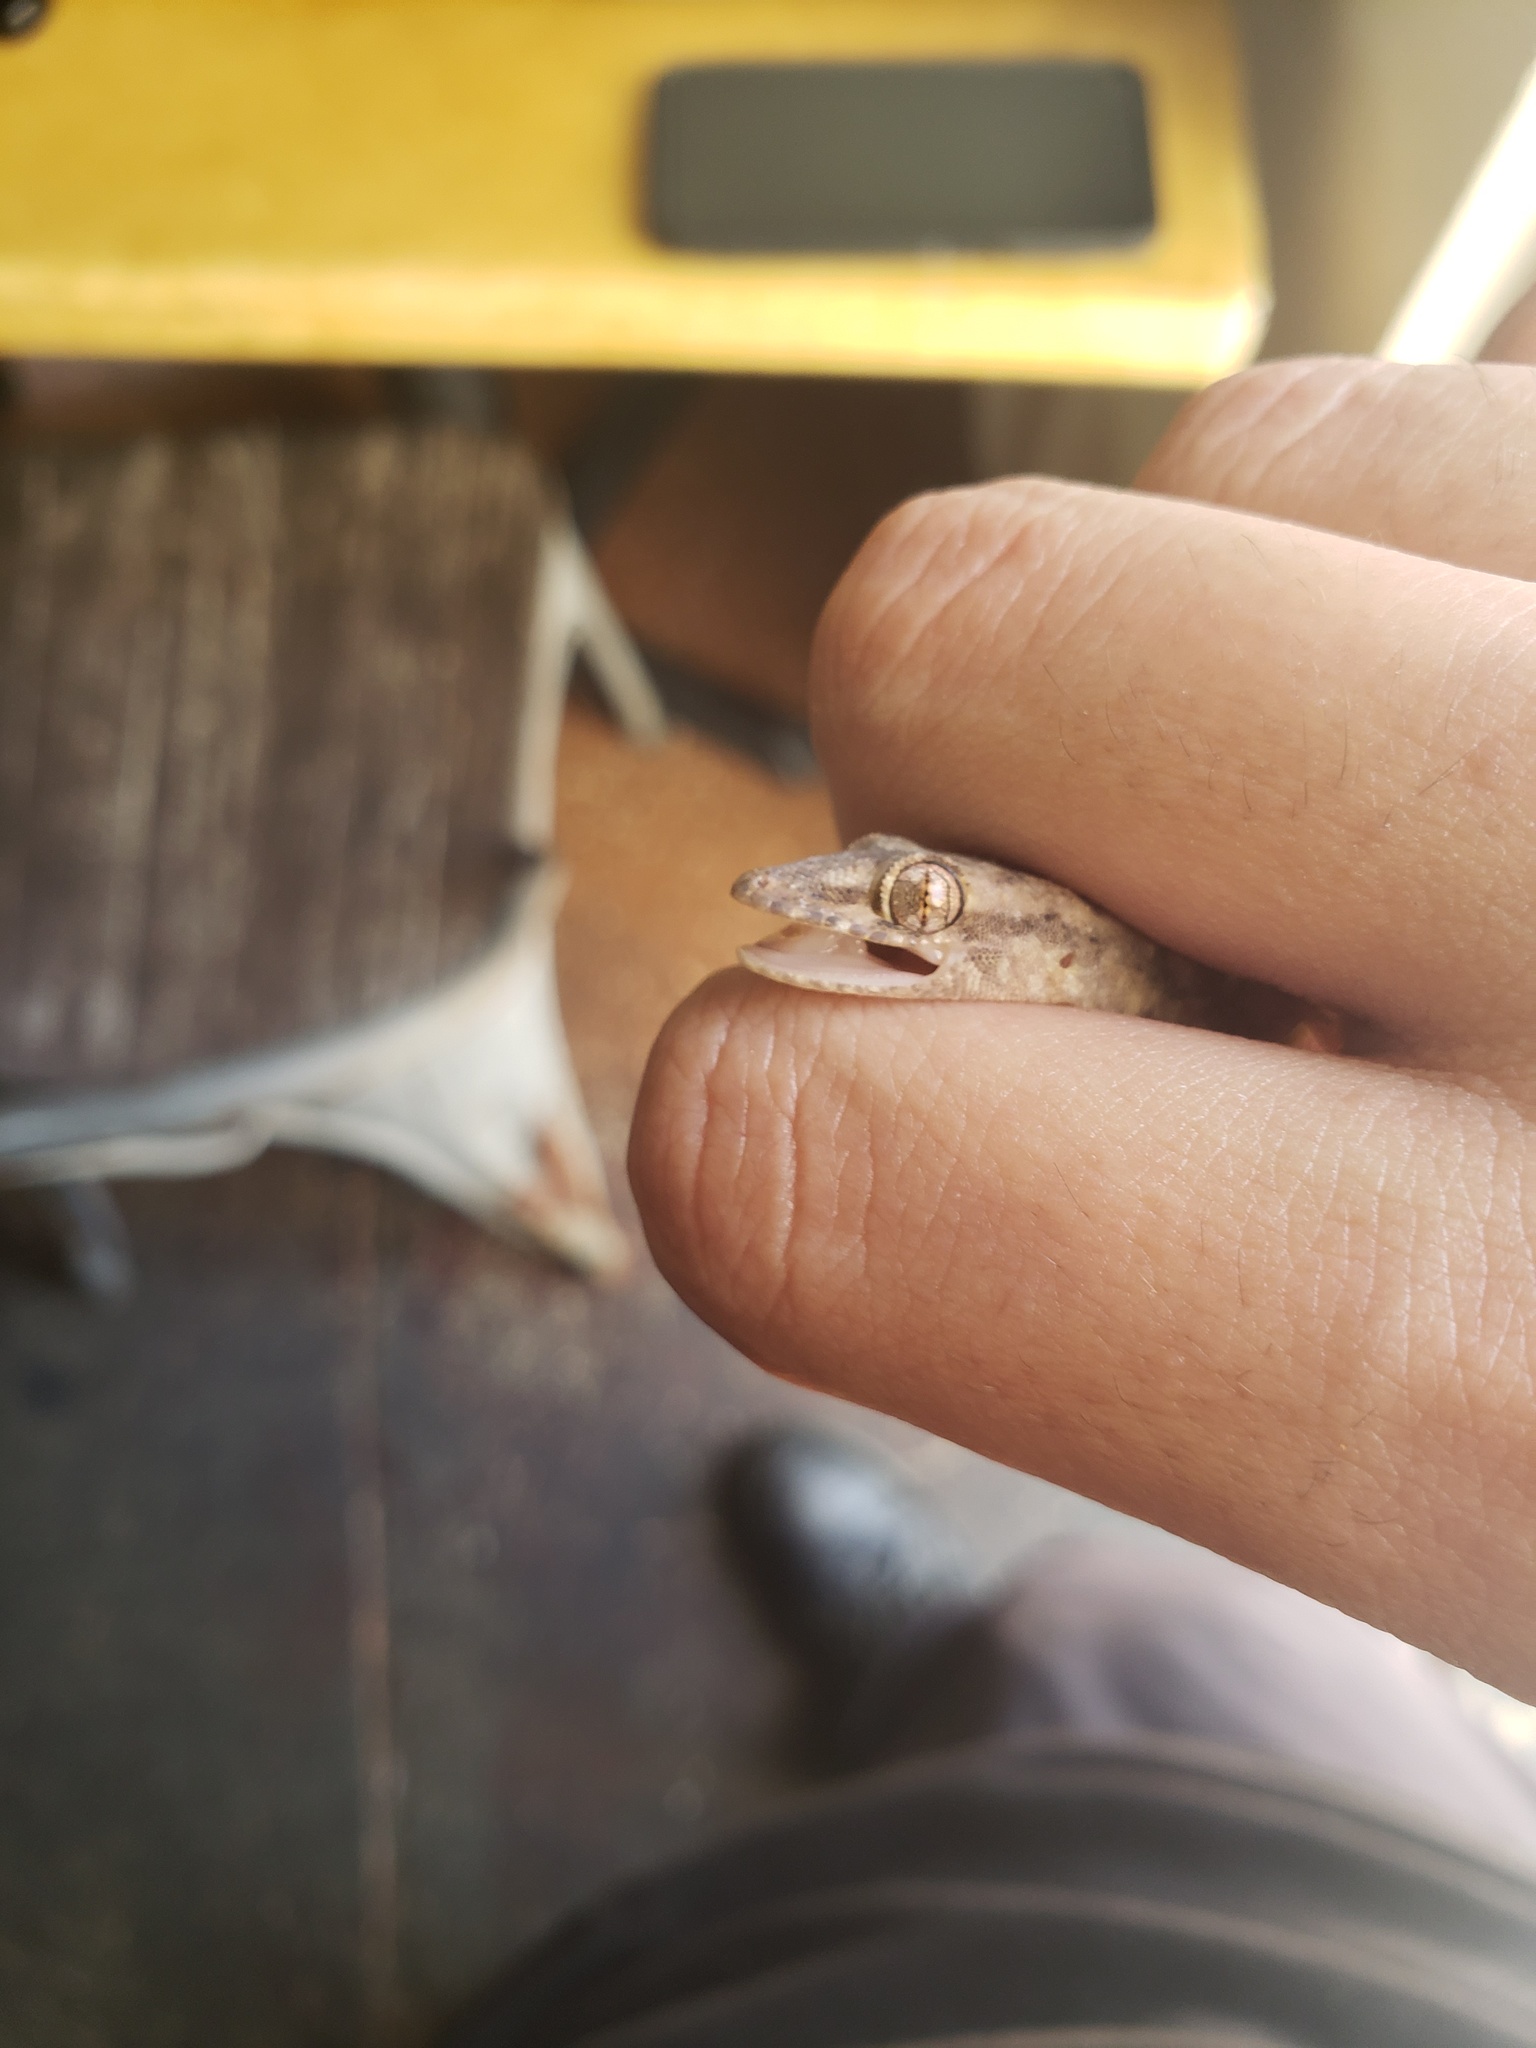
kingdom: Animalia
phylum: Chordata
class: Squamata
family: Gekkonidae
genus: Hemidactylus
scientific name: Hemidactylus mabouia
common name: House gecko
